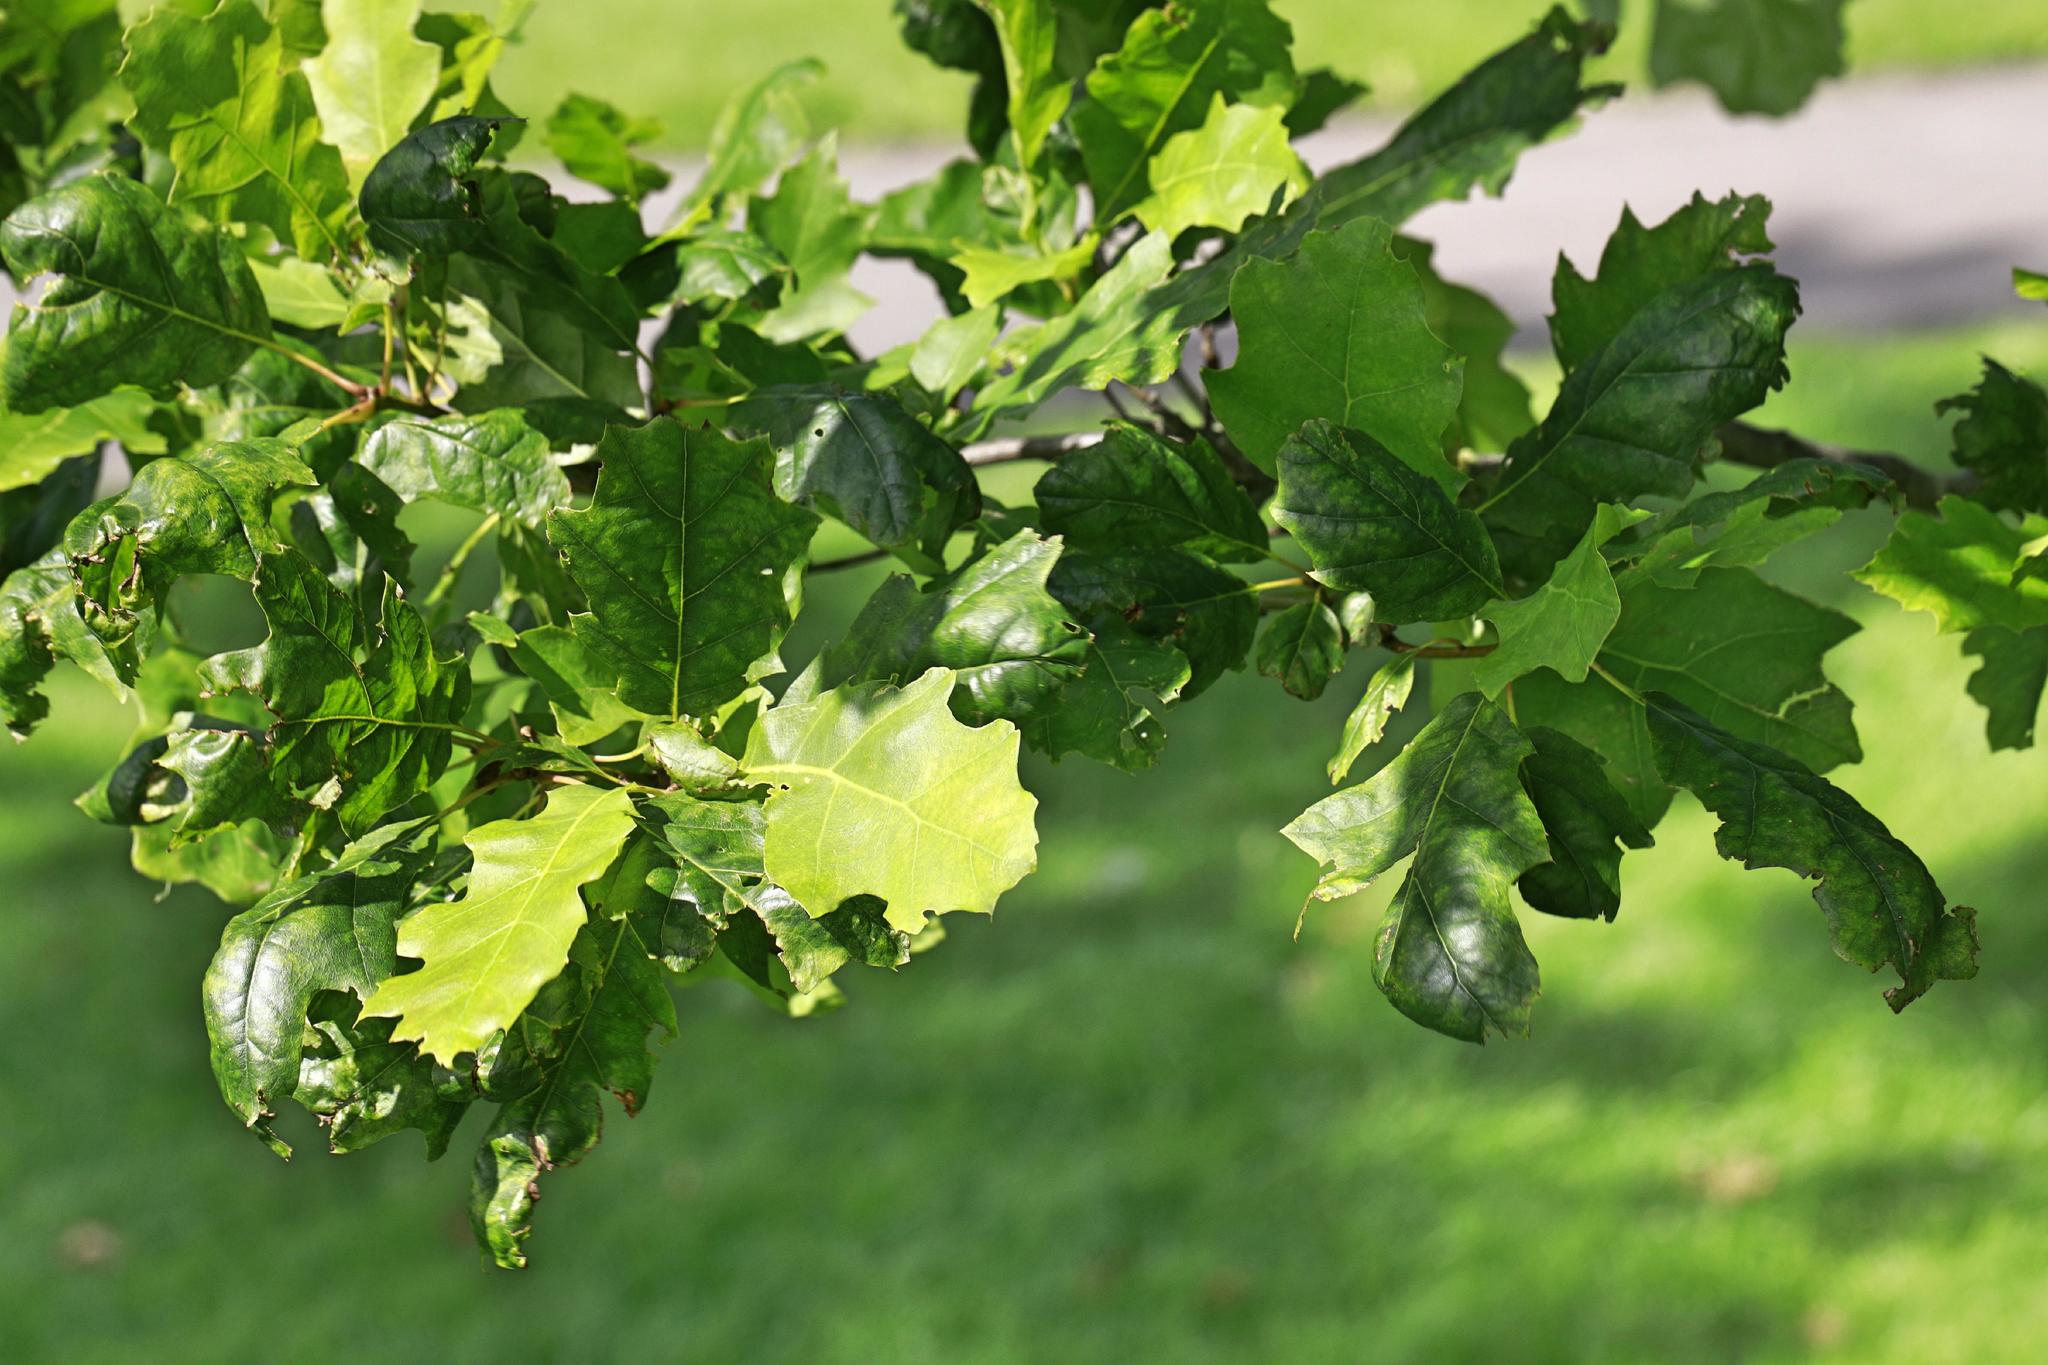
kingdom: Plantae
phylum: Tracheophyta
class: Magnoliopsida
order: Fagales
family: Fagaceae
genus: Quercus
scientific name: Quercus petraea
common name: Sessile oak
